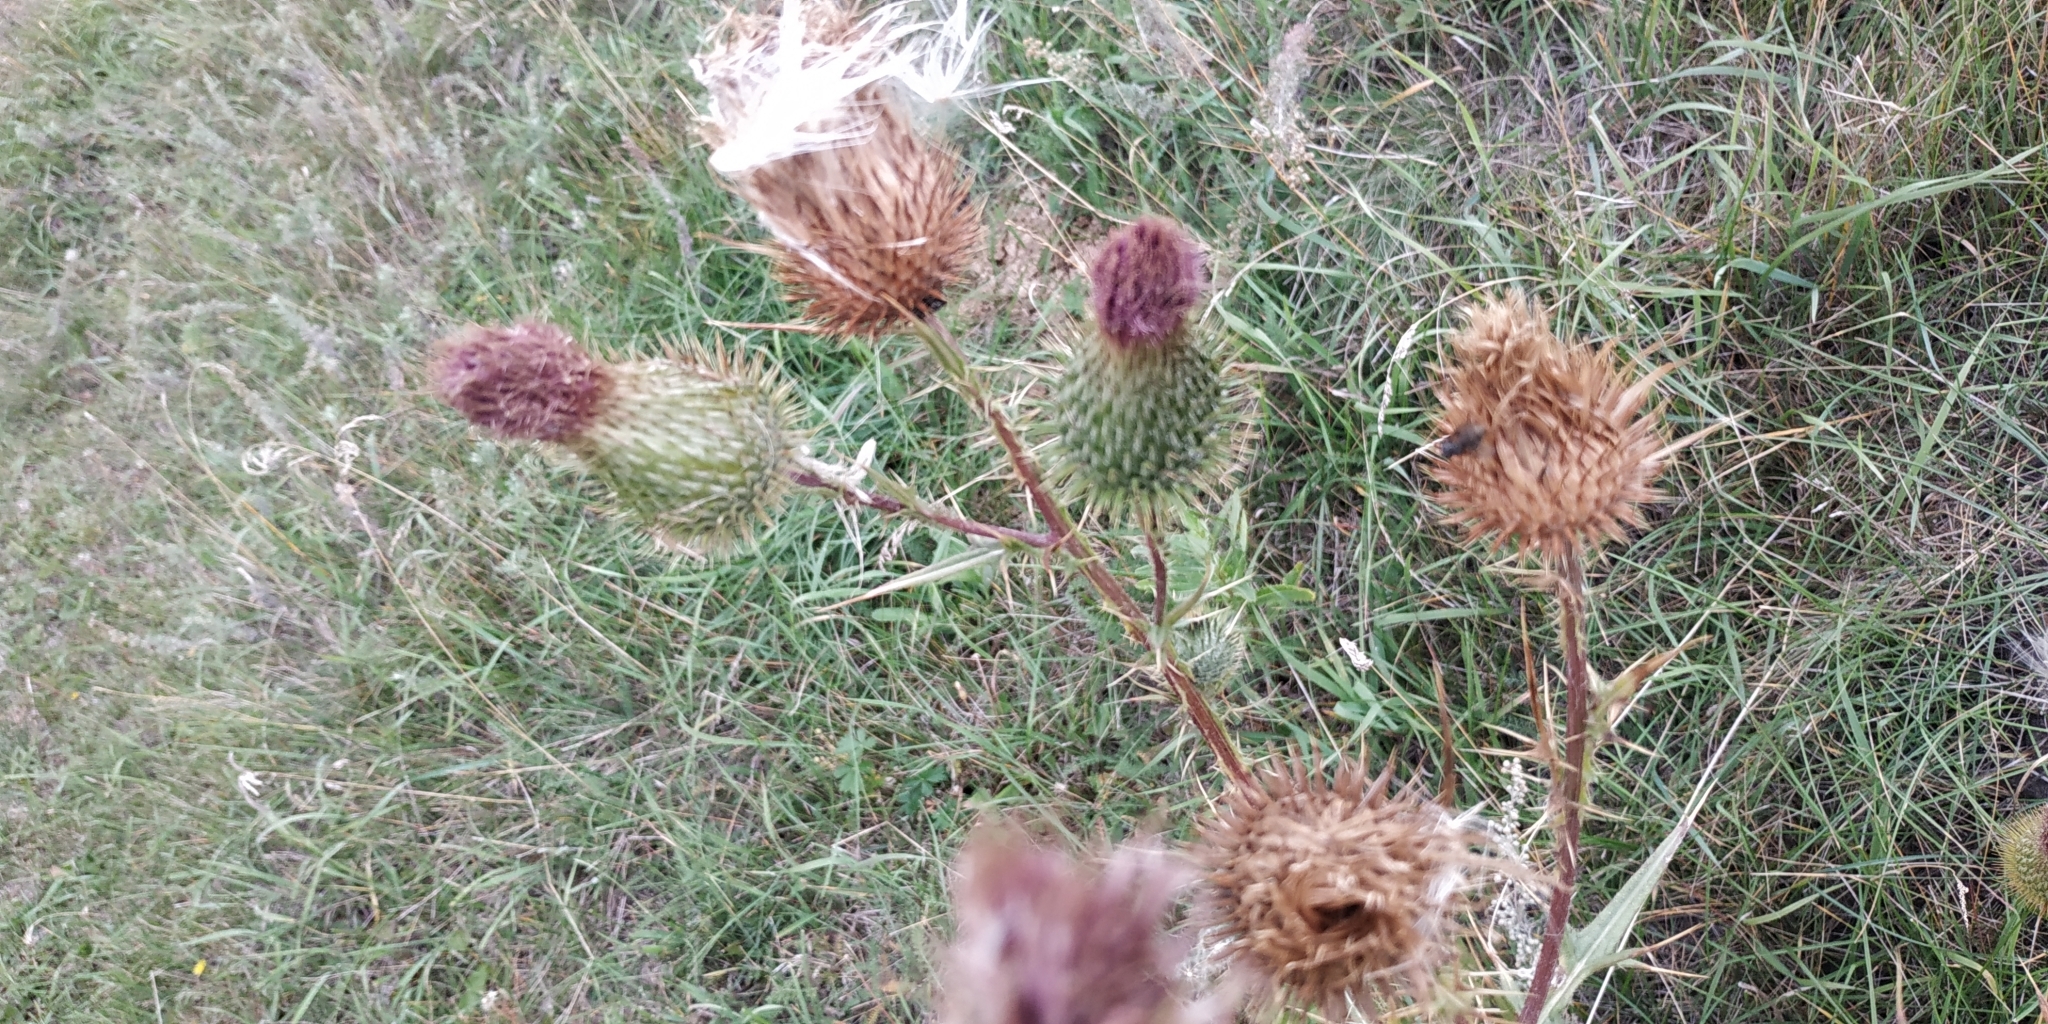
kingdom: Plantae
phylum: Tracheophyta
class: Magnoliopsida
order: Asterales
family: Asteraceae
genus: Cirsium
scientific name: Cirsium vulgare
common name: Bull thistle
